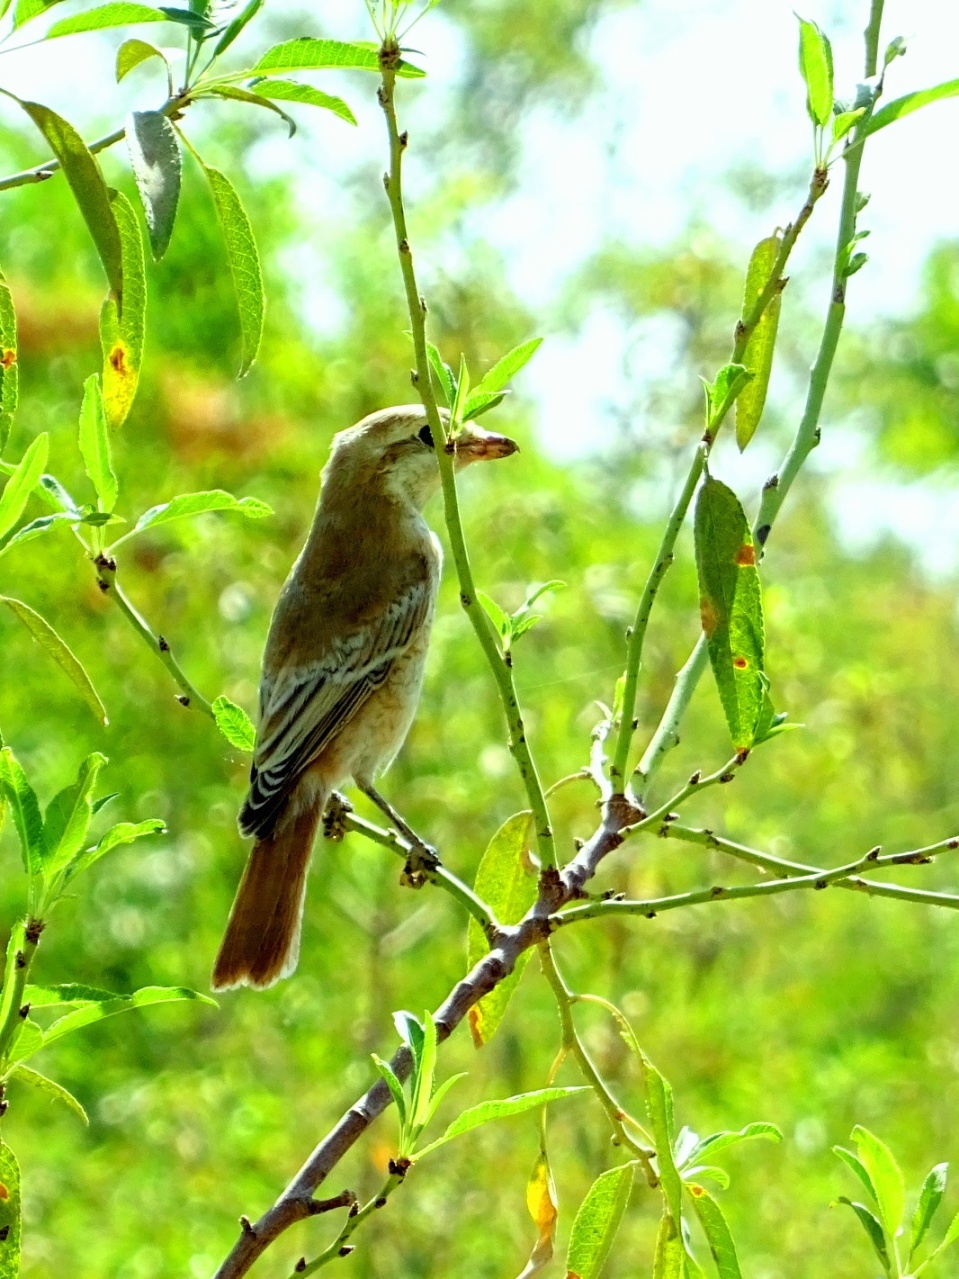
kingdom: Animalia
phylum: Chordata
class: Aves
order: Passeriformes
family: Laniidae
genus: Lanius
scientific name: Lanius phoenicuroides
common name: Red-tailed shrike
